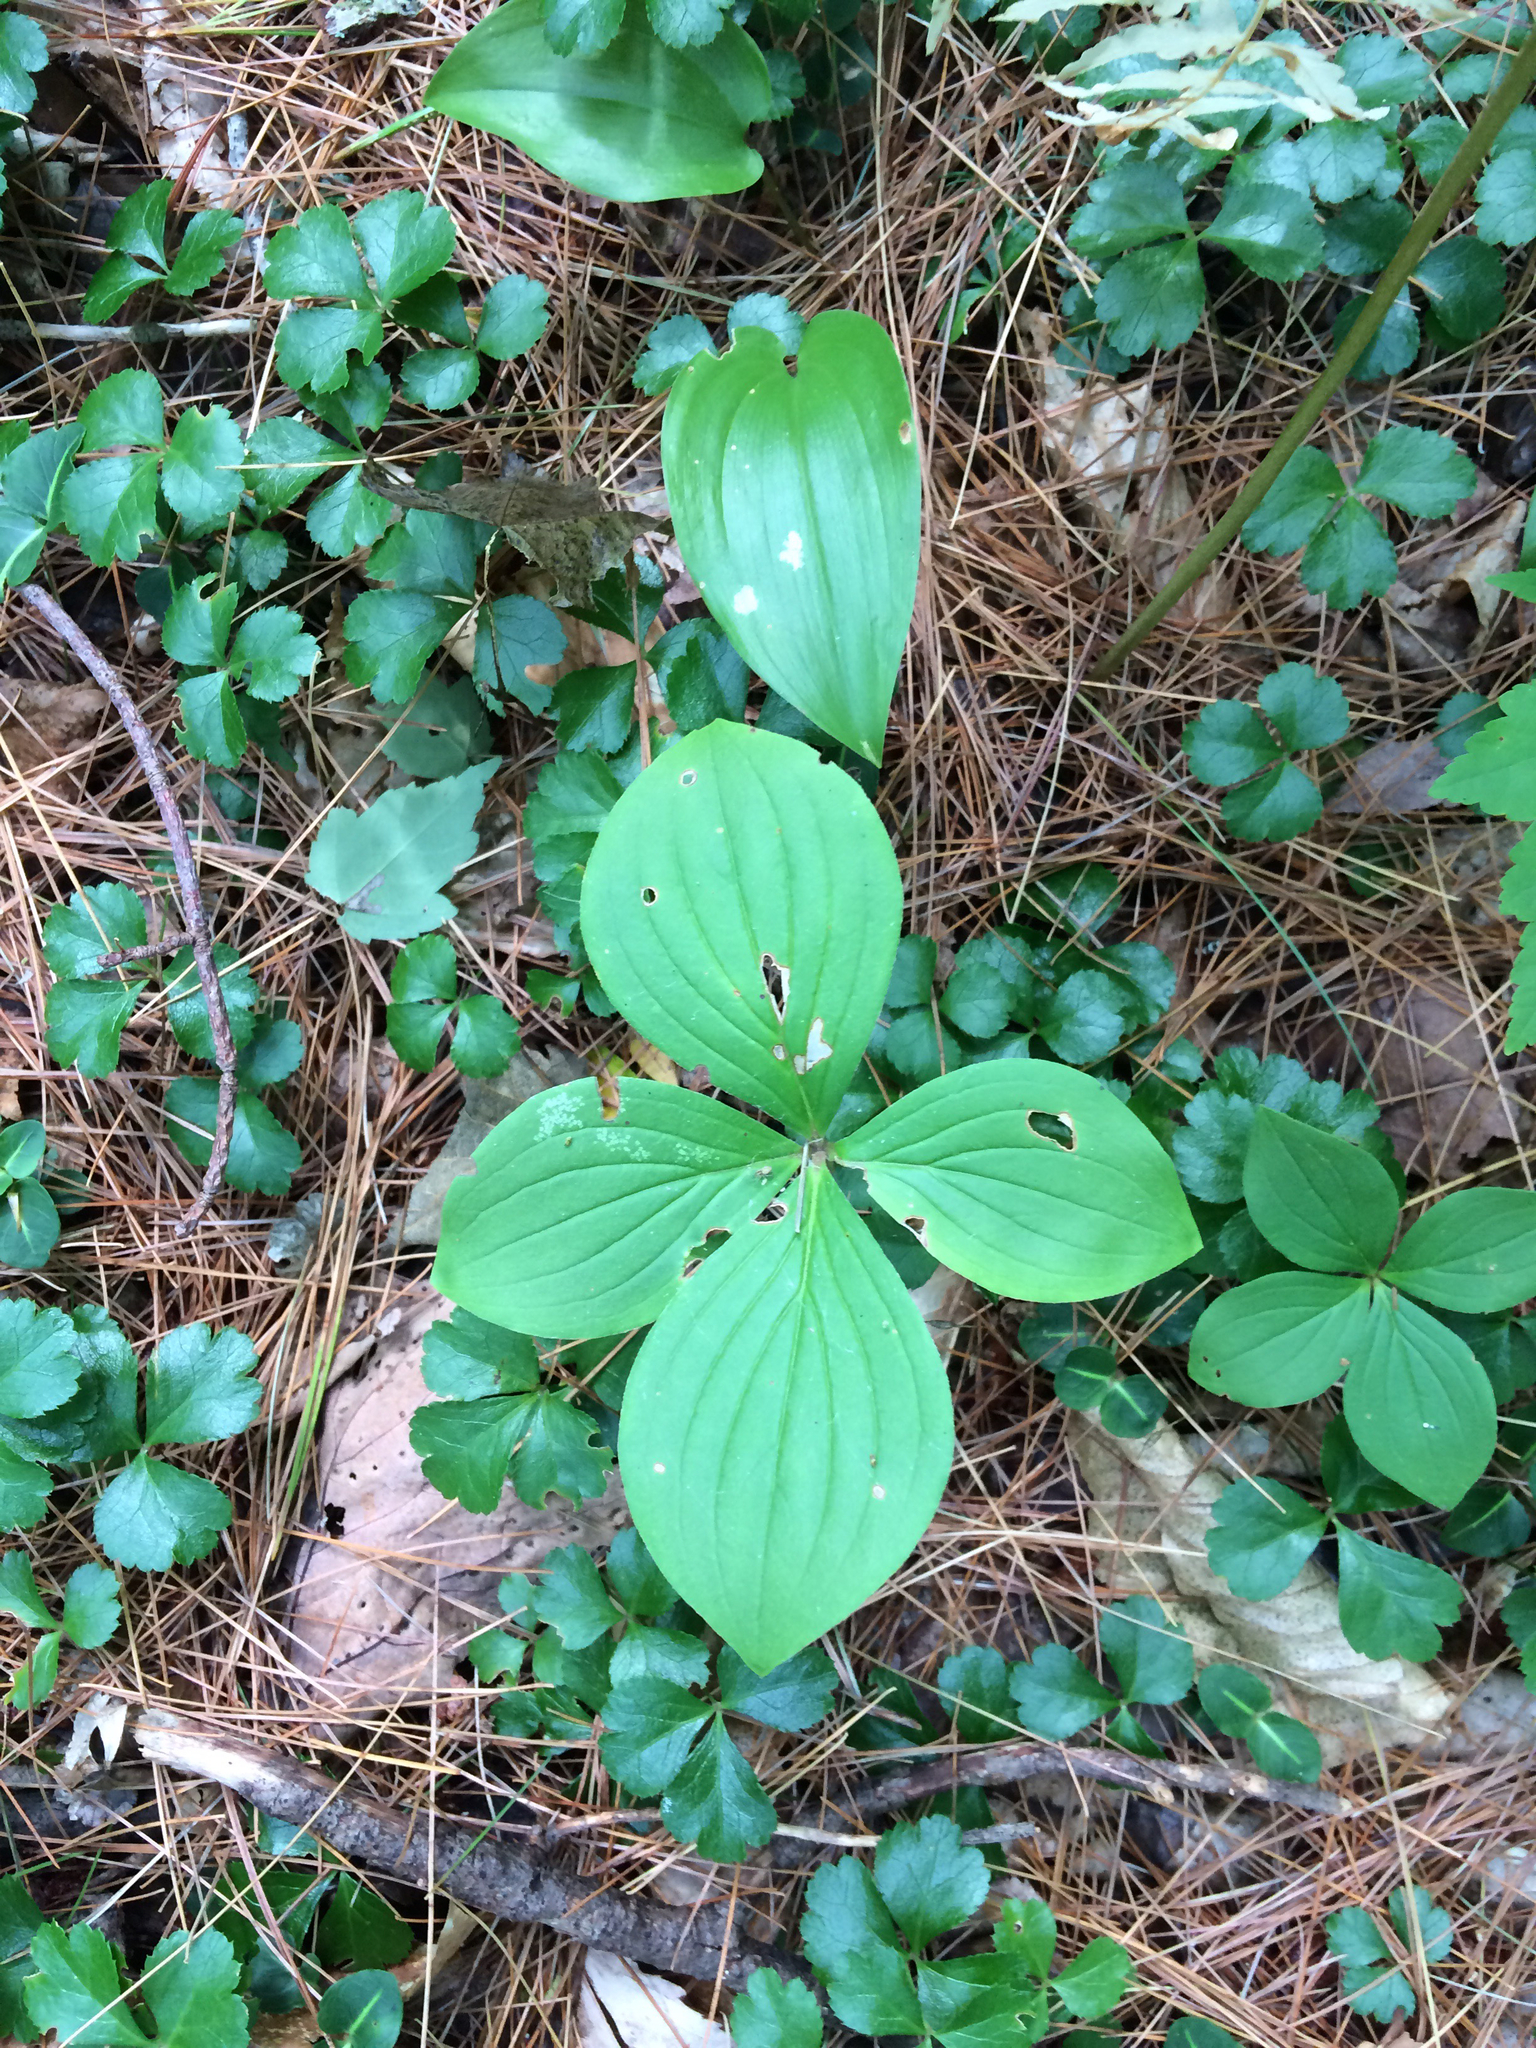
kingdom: Plantae
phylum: Tracheophyta
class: Magnoliopsida
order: Cornales
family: Cornaceae
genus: Cornus
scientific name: Cornus canadensis
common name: Creeping dogwood
